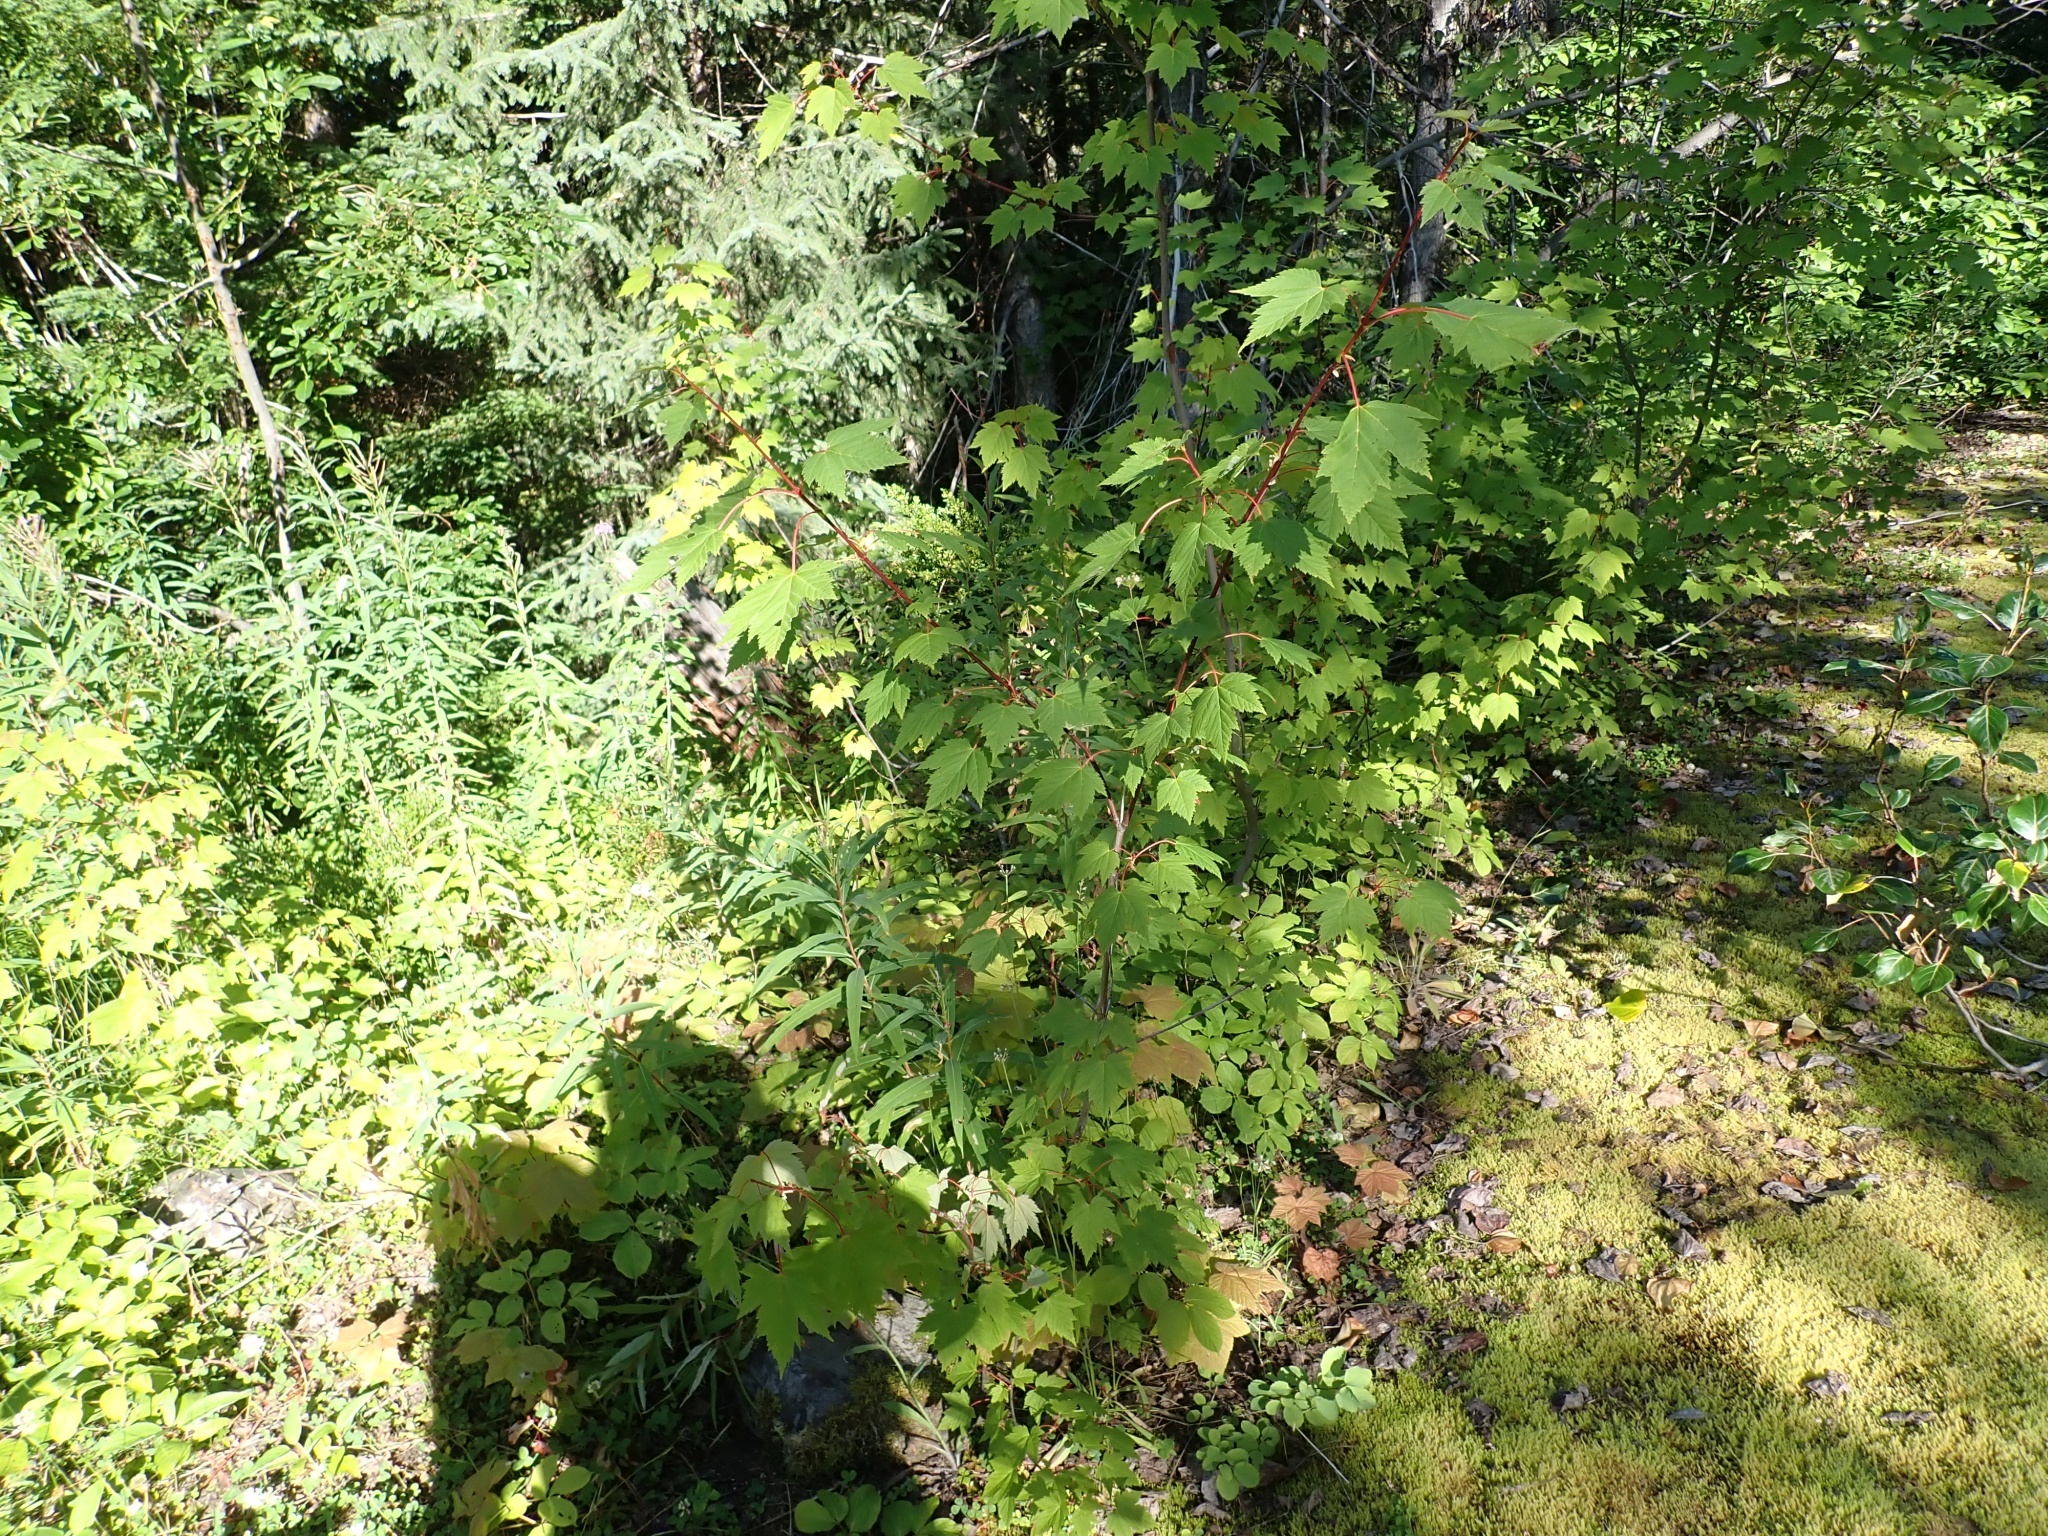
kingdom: Plantae
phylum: Tracheophyta
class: Magnoliopsida
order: Sapindales
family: Sapindaceae
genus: Acer
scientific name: Acer glabrum
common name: Rocky mountain maple
